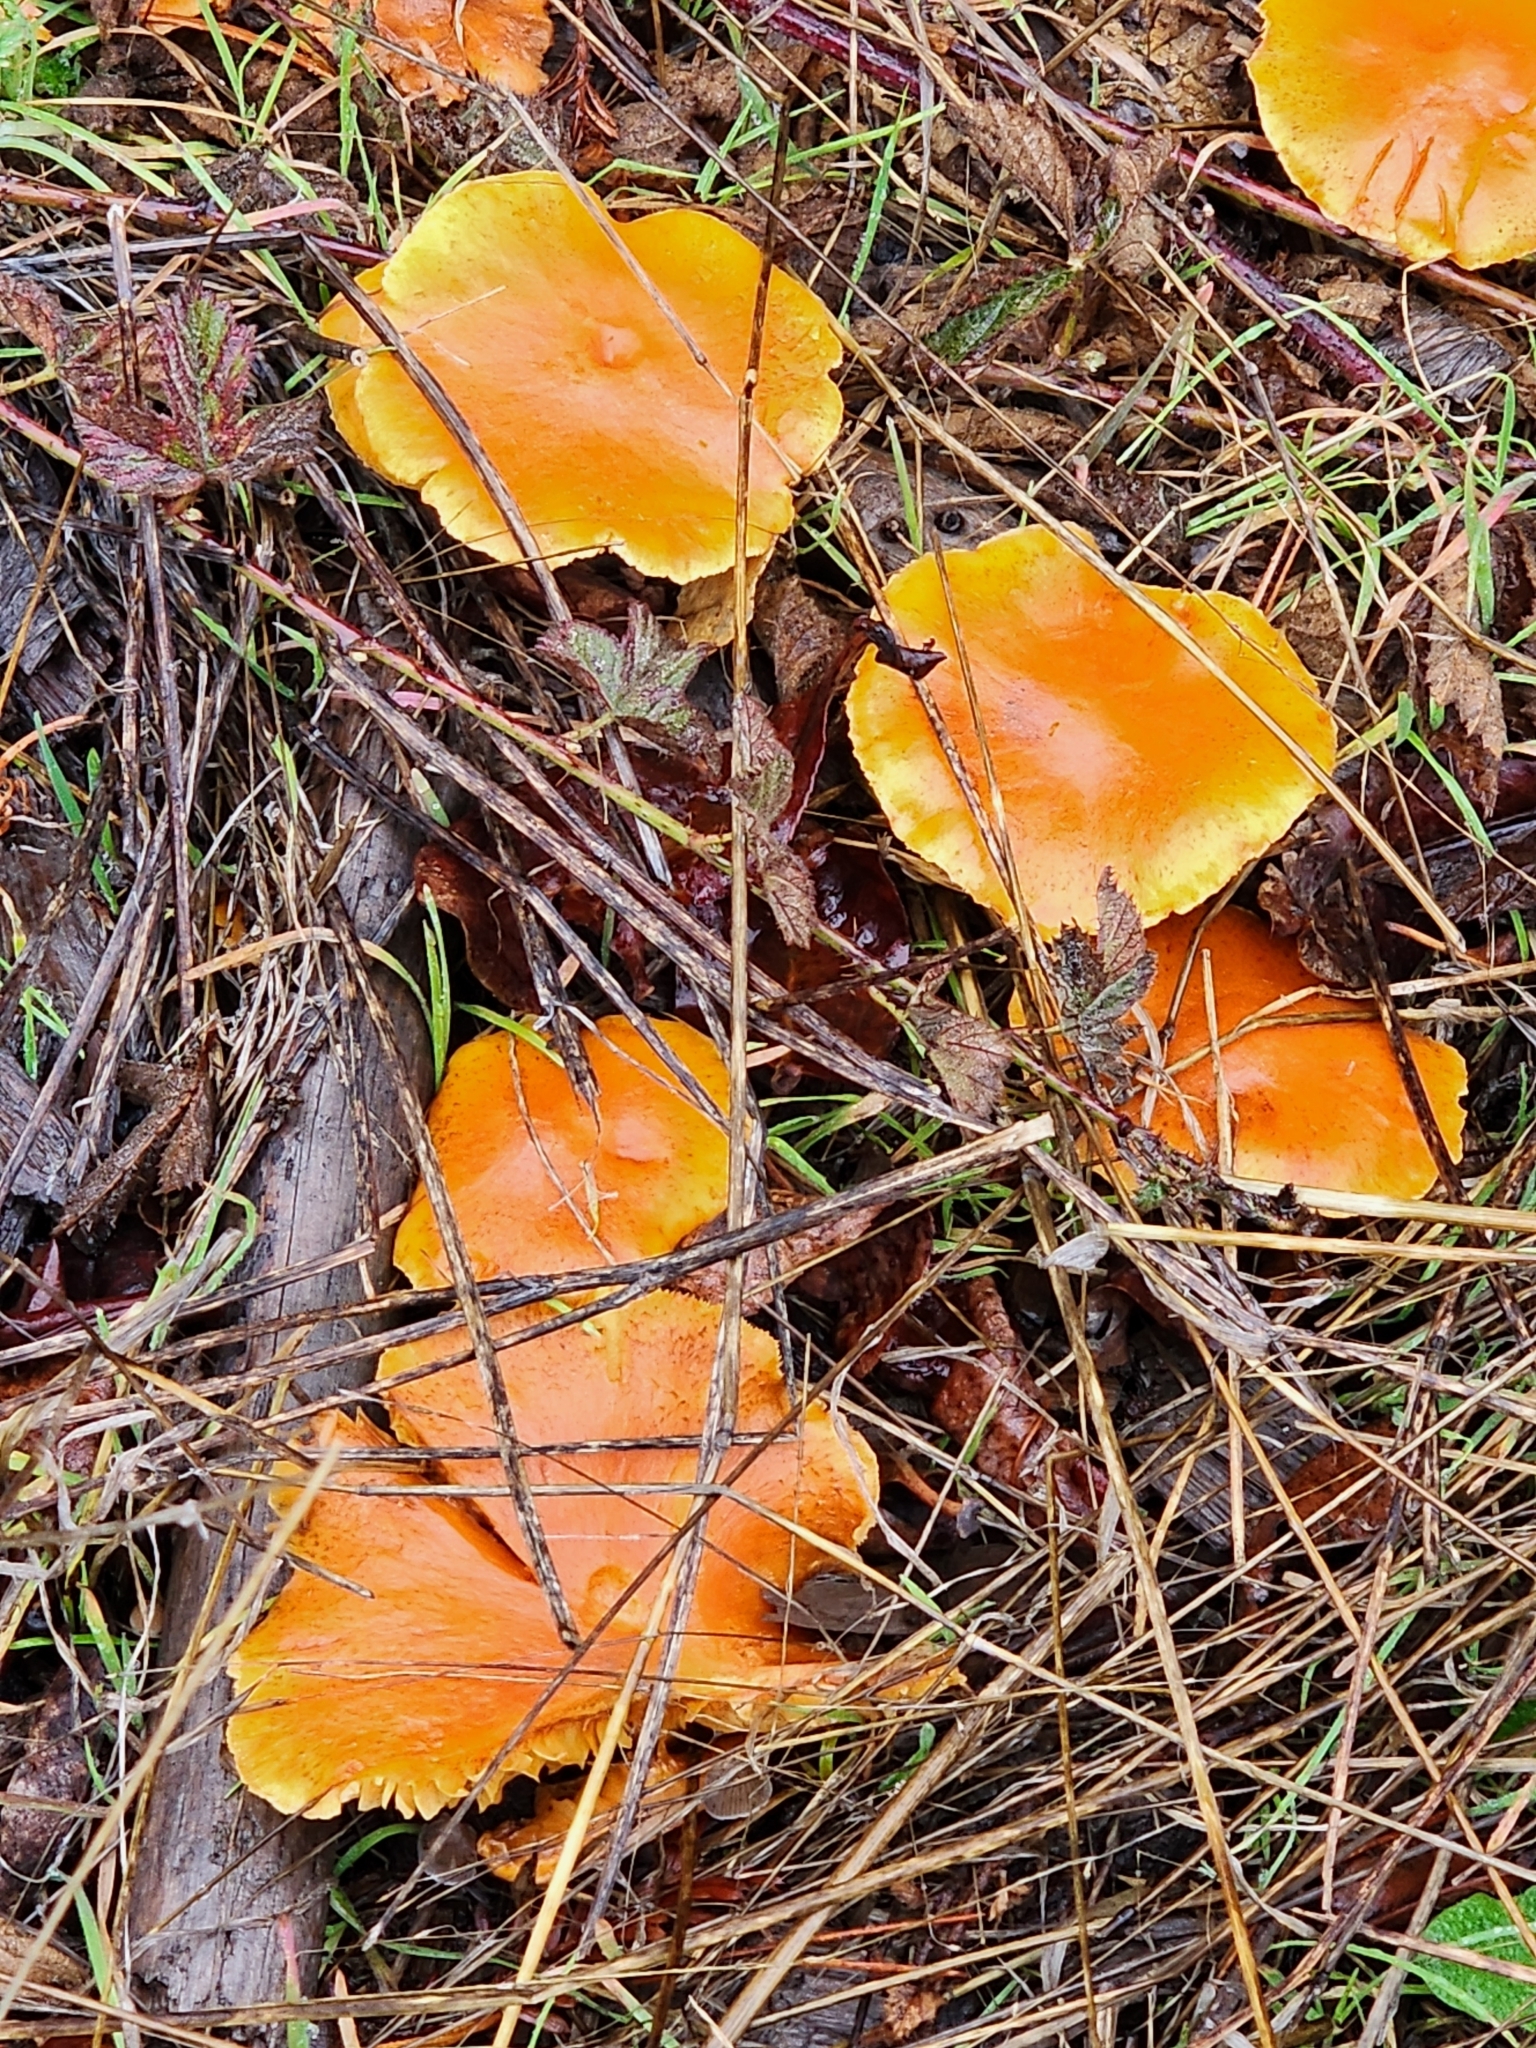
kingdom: Fungi
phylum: Basidiomycota
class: Agaricomycetes
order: Agaricales
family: Hymenogastraceae
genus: Gymnopilus
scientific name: Gymnopilus aurantiophyllus
